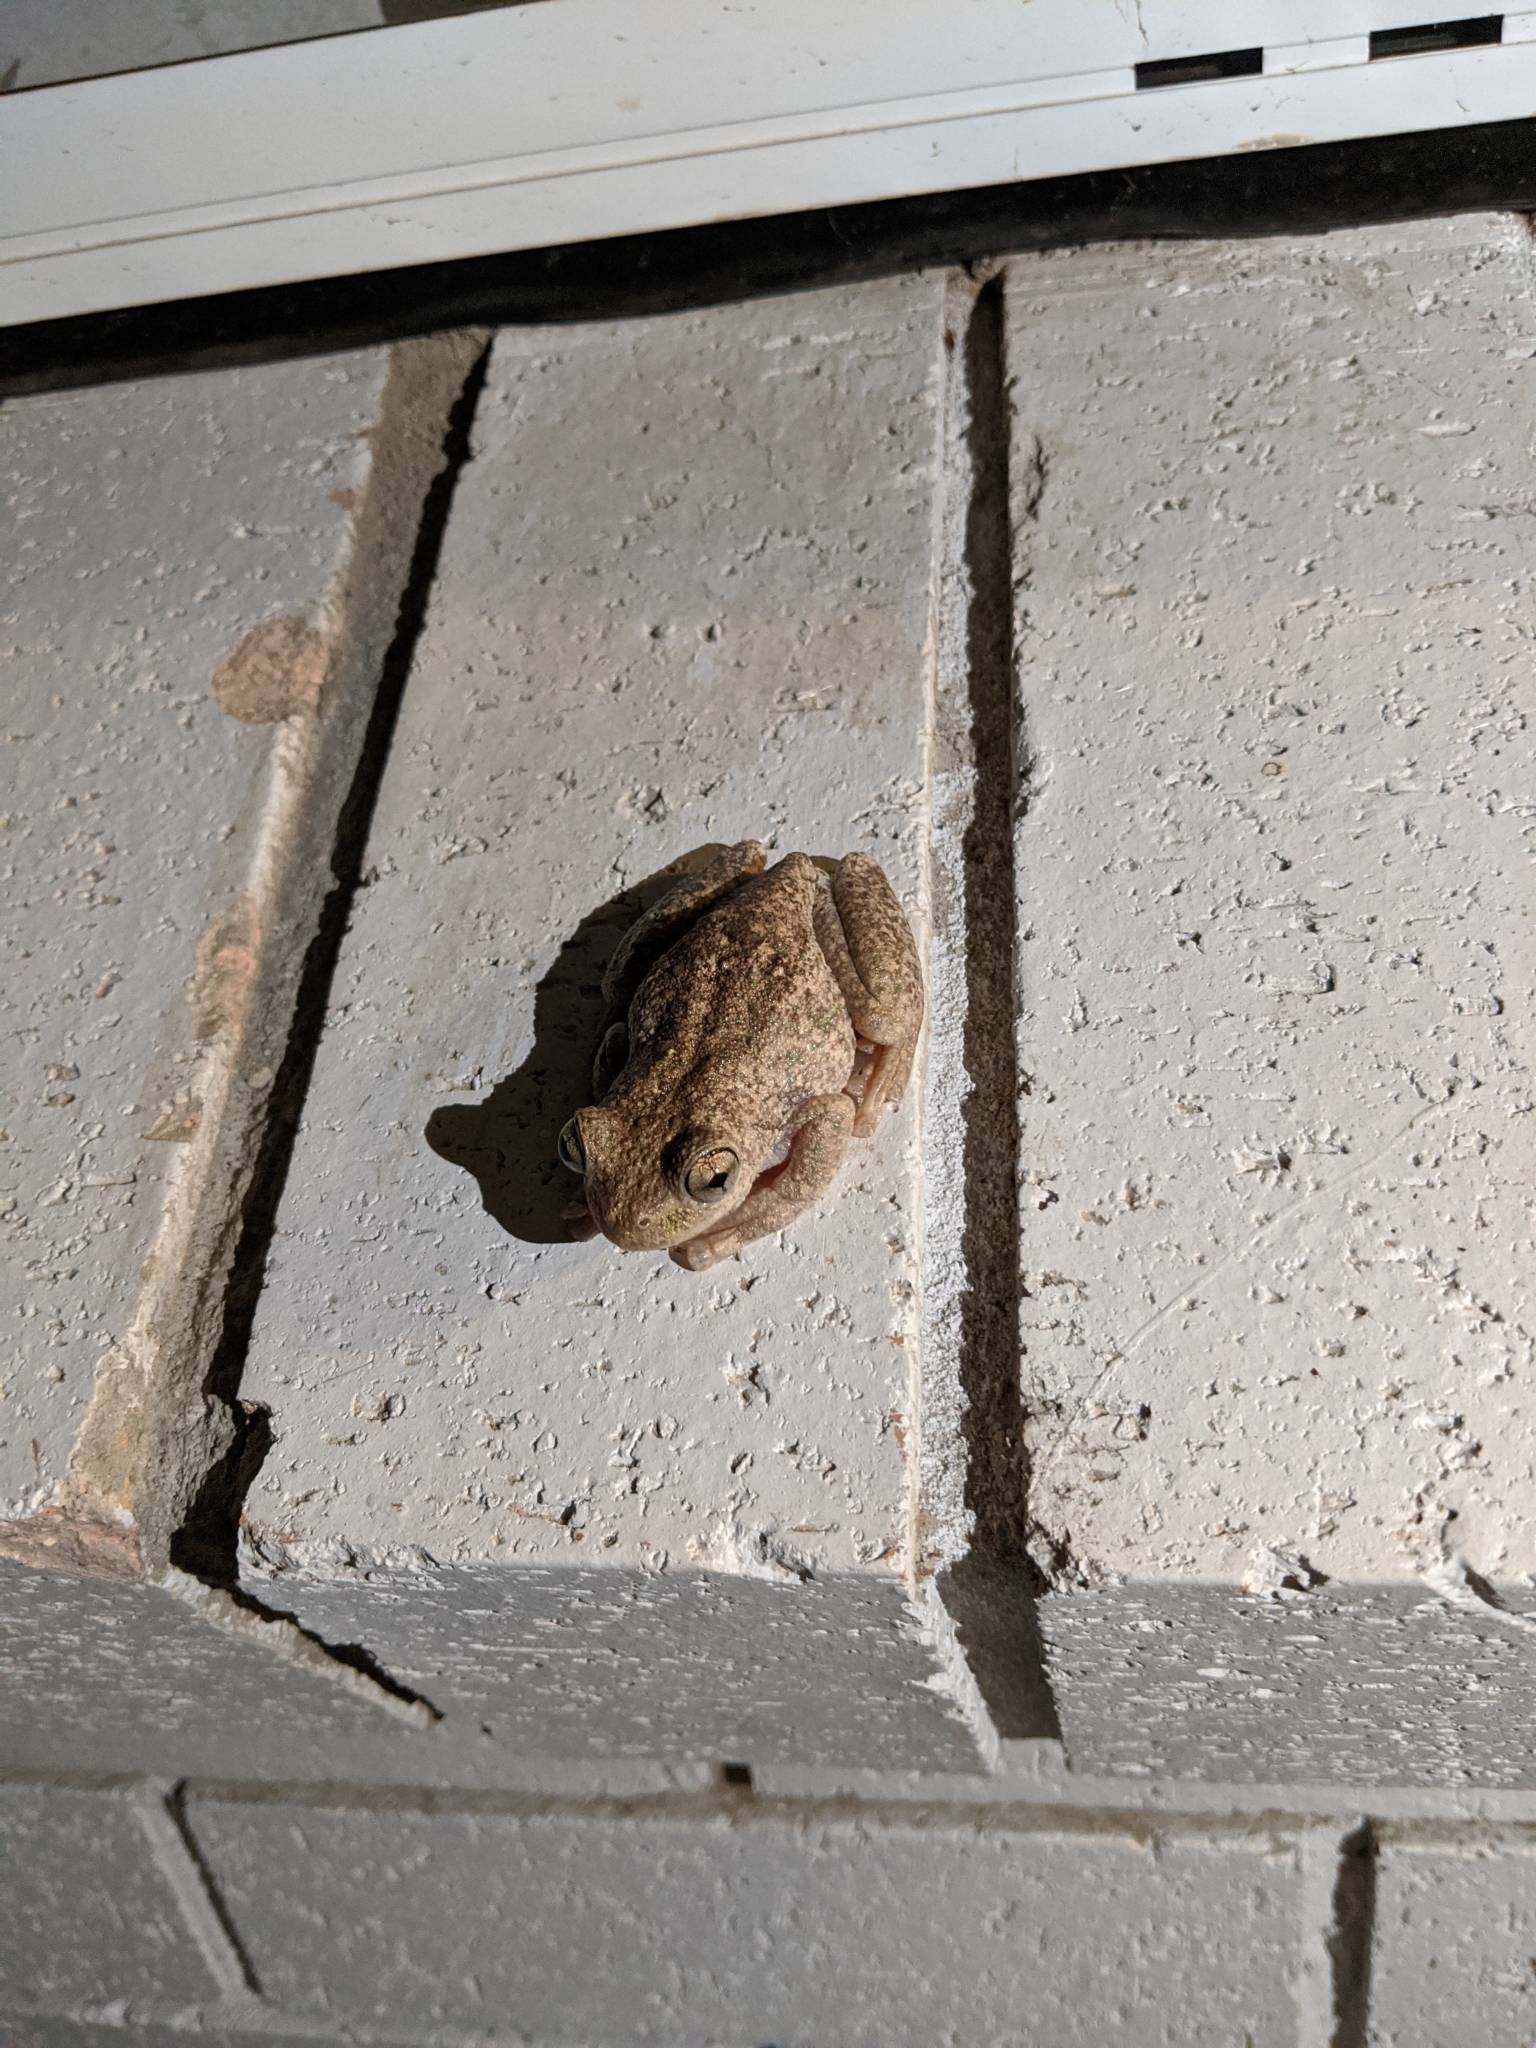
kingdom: Animalia
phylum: Chordata
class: Amphibia
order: Anura
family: Pelodryadidae
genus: Litoria
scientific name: Litoria tyleri
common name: Laughing tree frog
